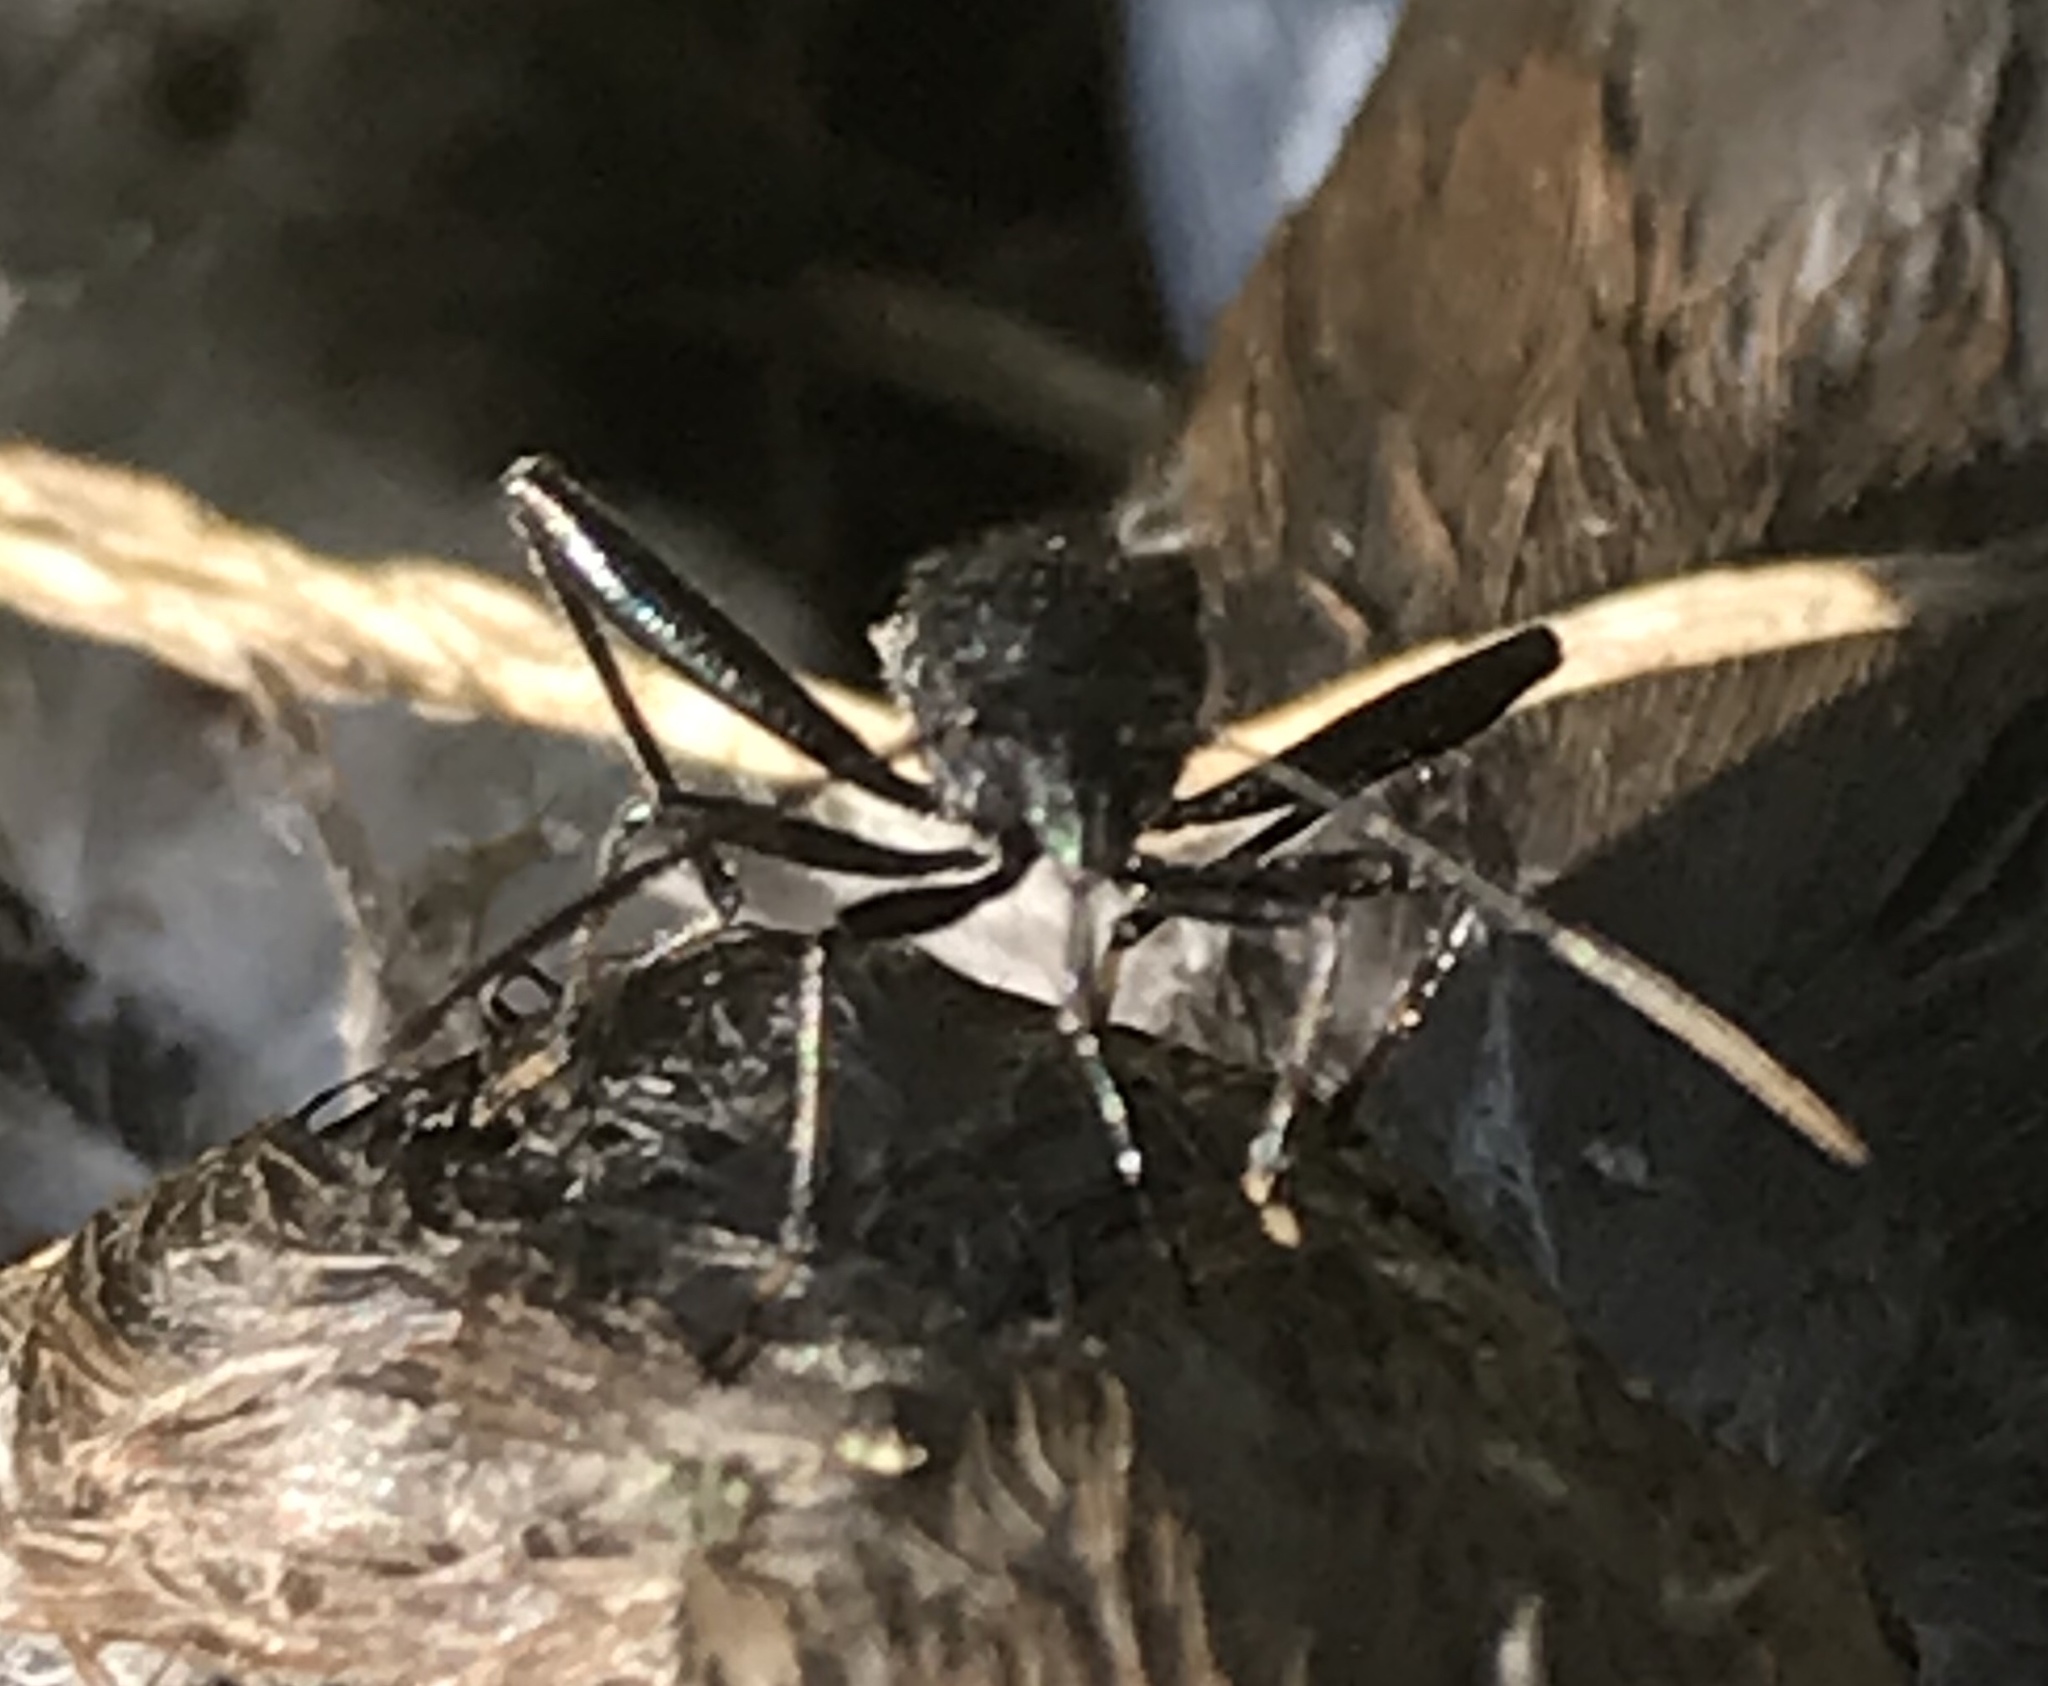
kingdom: Animalia
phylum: Arthropoda
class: Insecta
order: Hemiptera
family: Alydidae
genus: Alydus
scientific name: Alydus eurinus
